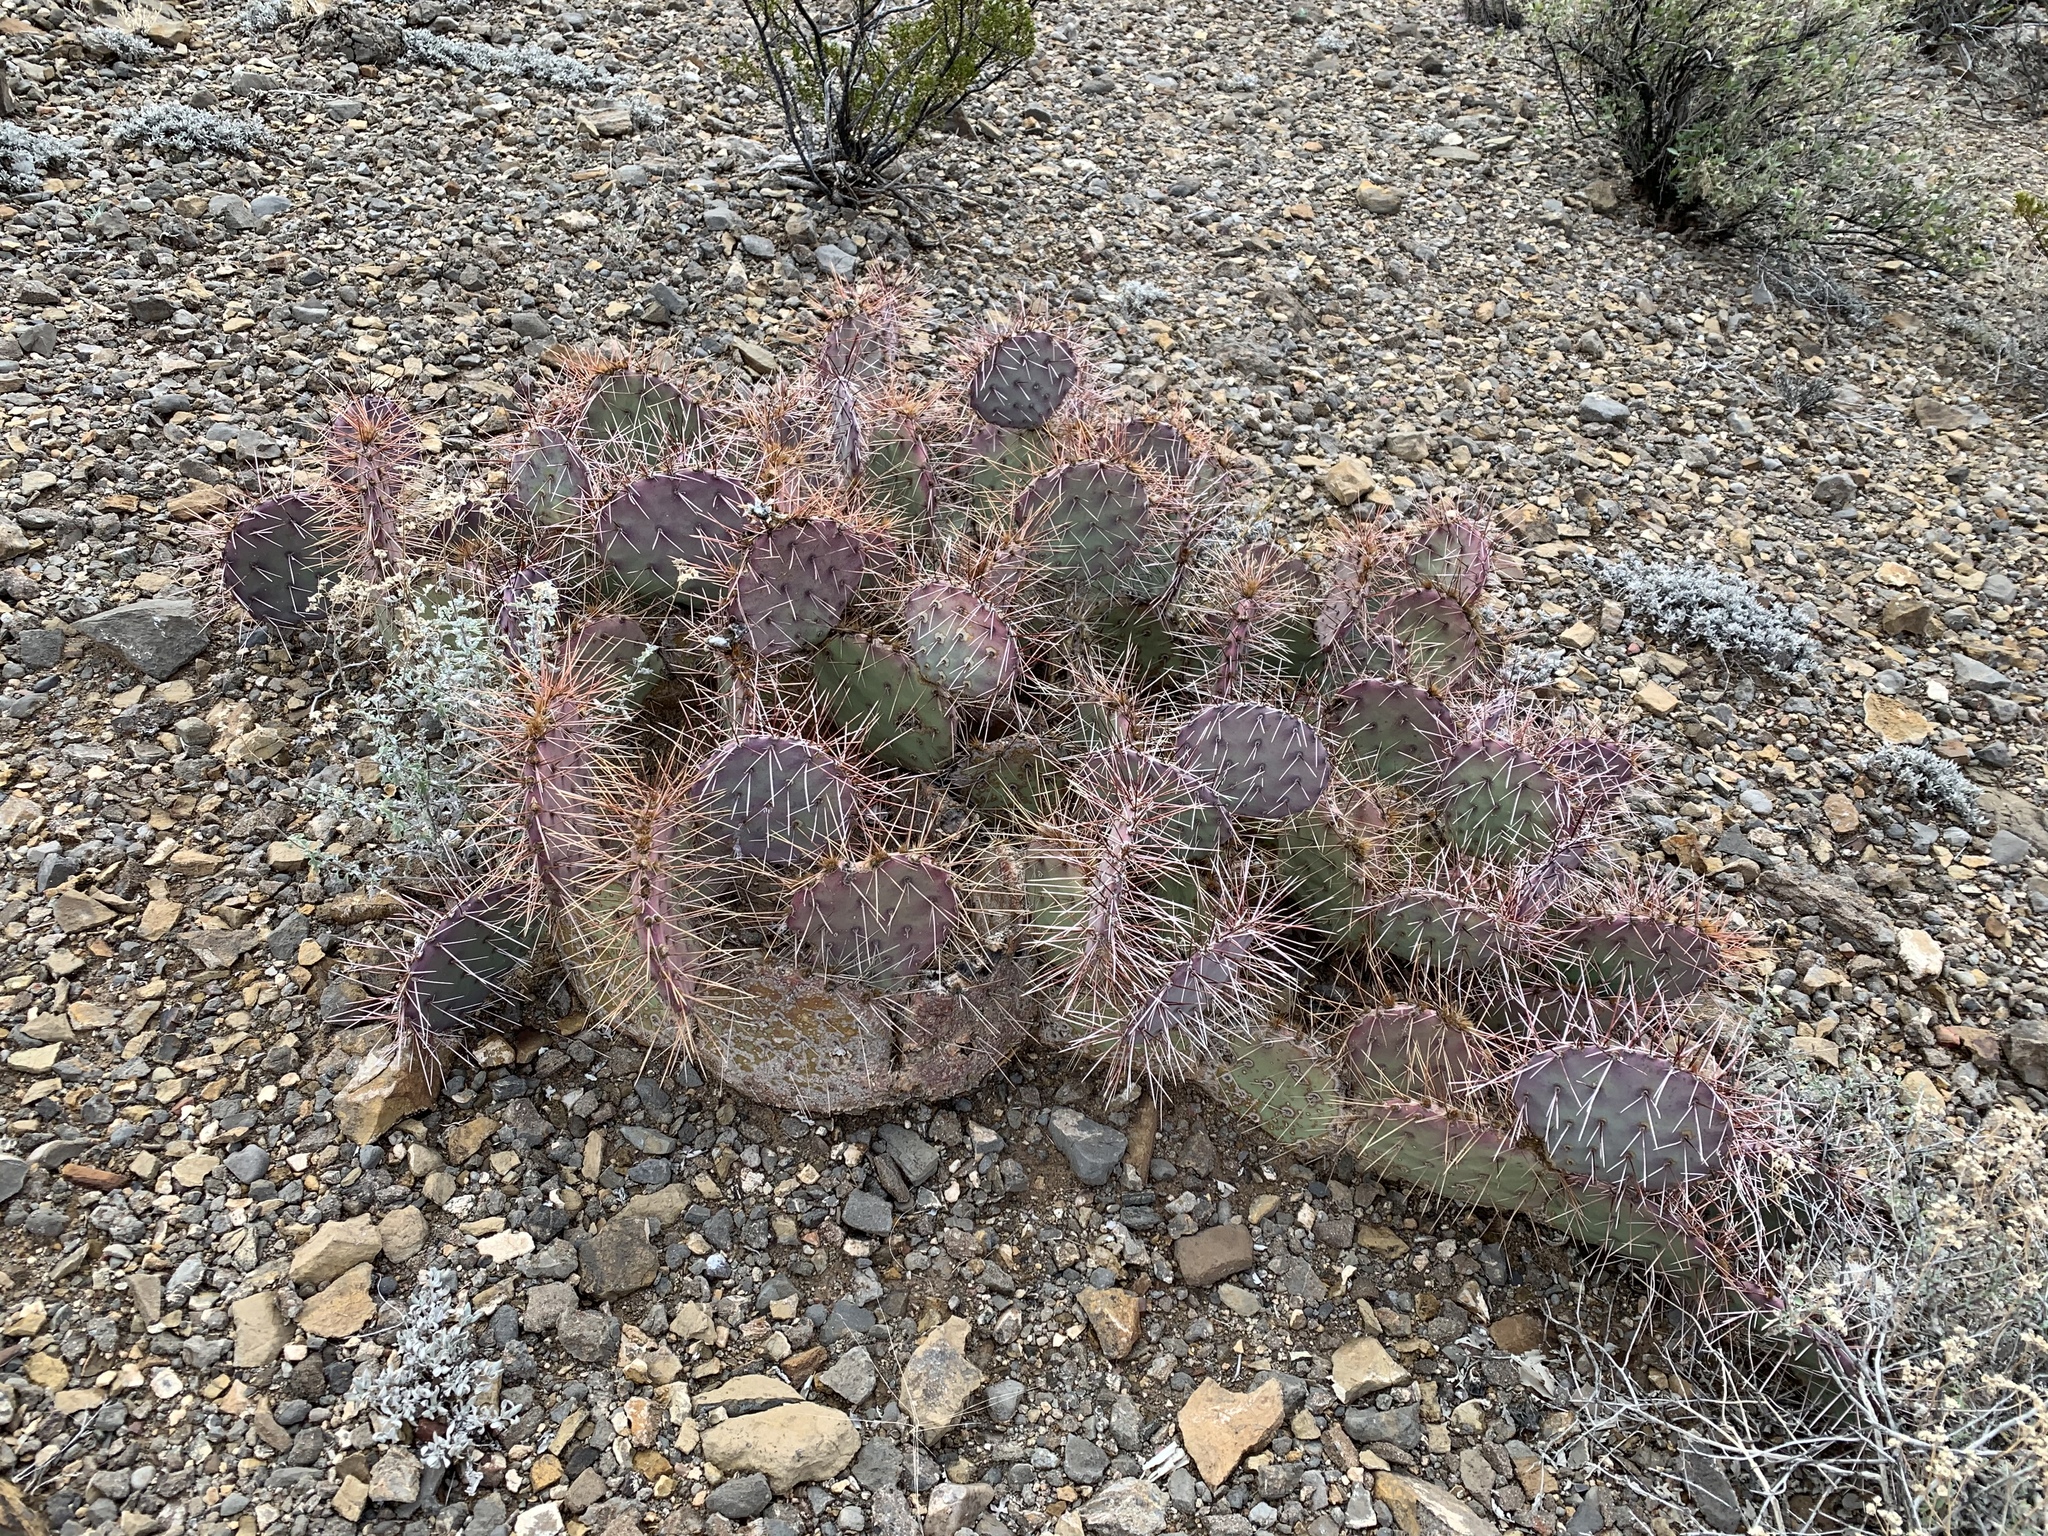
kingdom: Plantae
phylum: Tracheophyta
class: Magnoliopsida
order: Caryophyllales
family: Cactaceae
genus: Opuntia
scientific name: Opuntia macrocentra
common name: Purple prickly-pear
